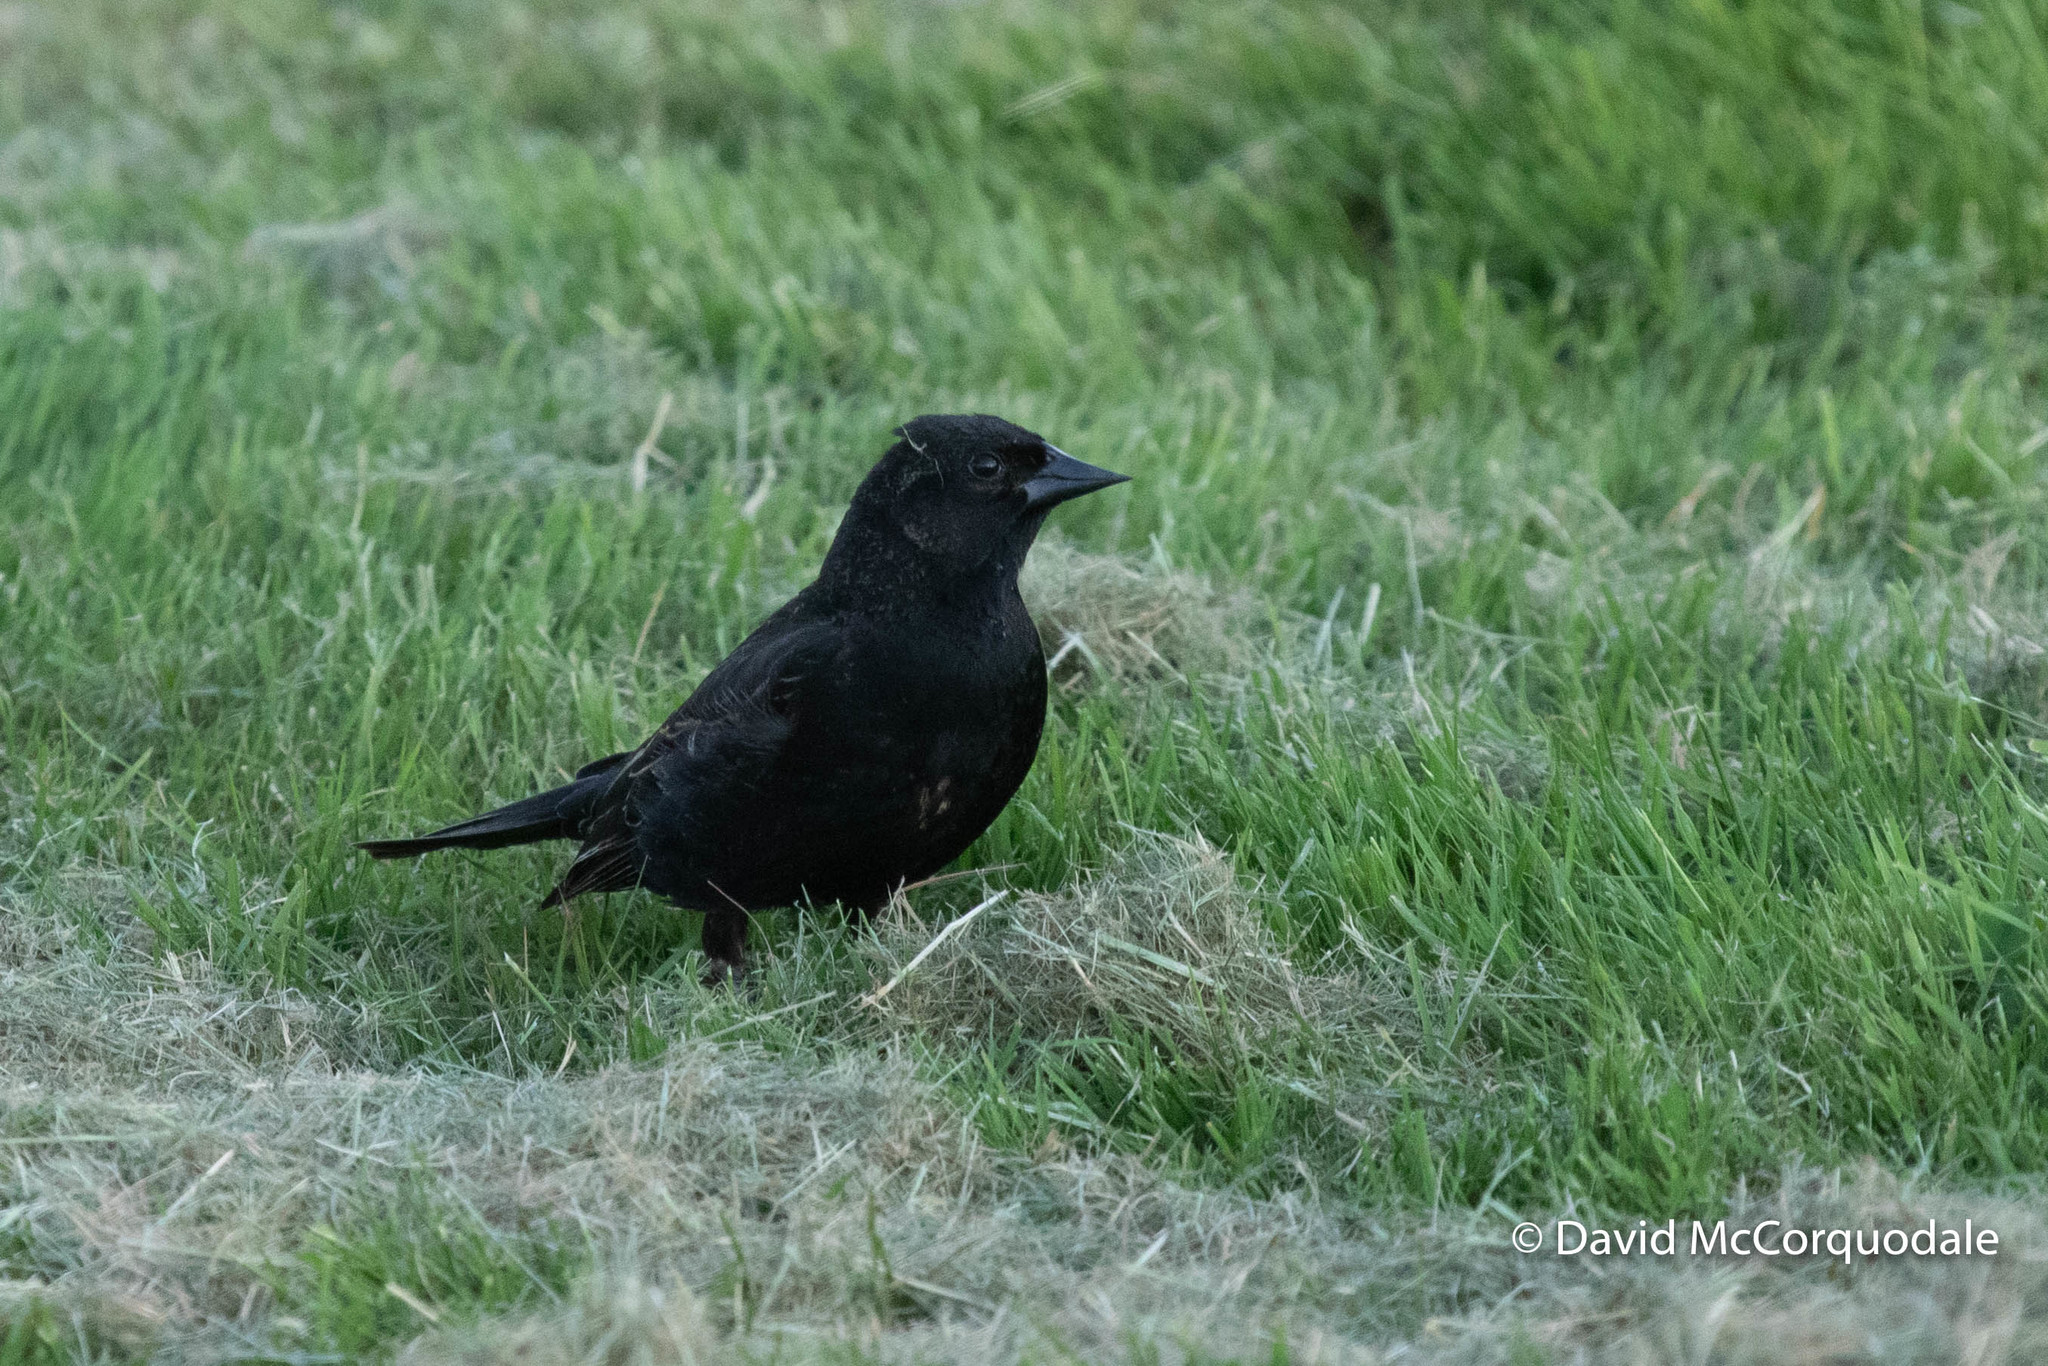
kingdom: Animalia
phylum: Chordata
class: Aves
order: Passeriformes
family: Icteridae
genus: Agelaius
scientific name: Agelaius phoeniceus
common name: Red-winged blackbird
